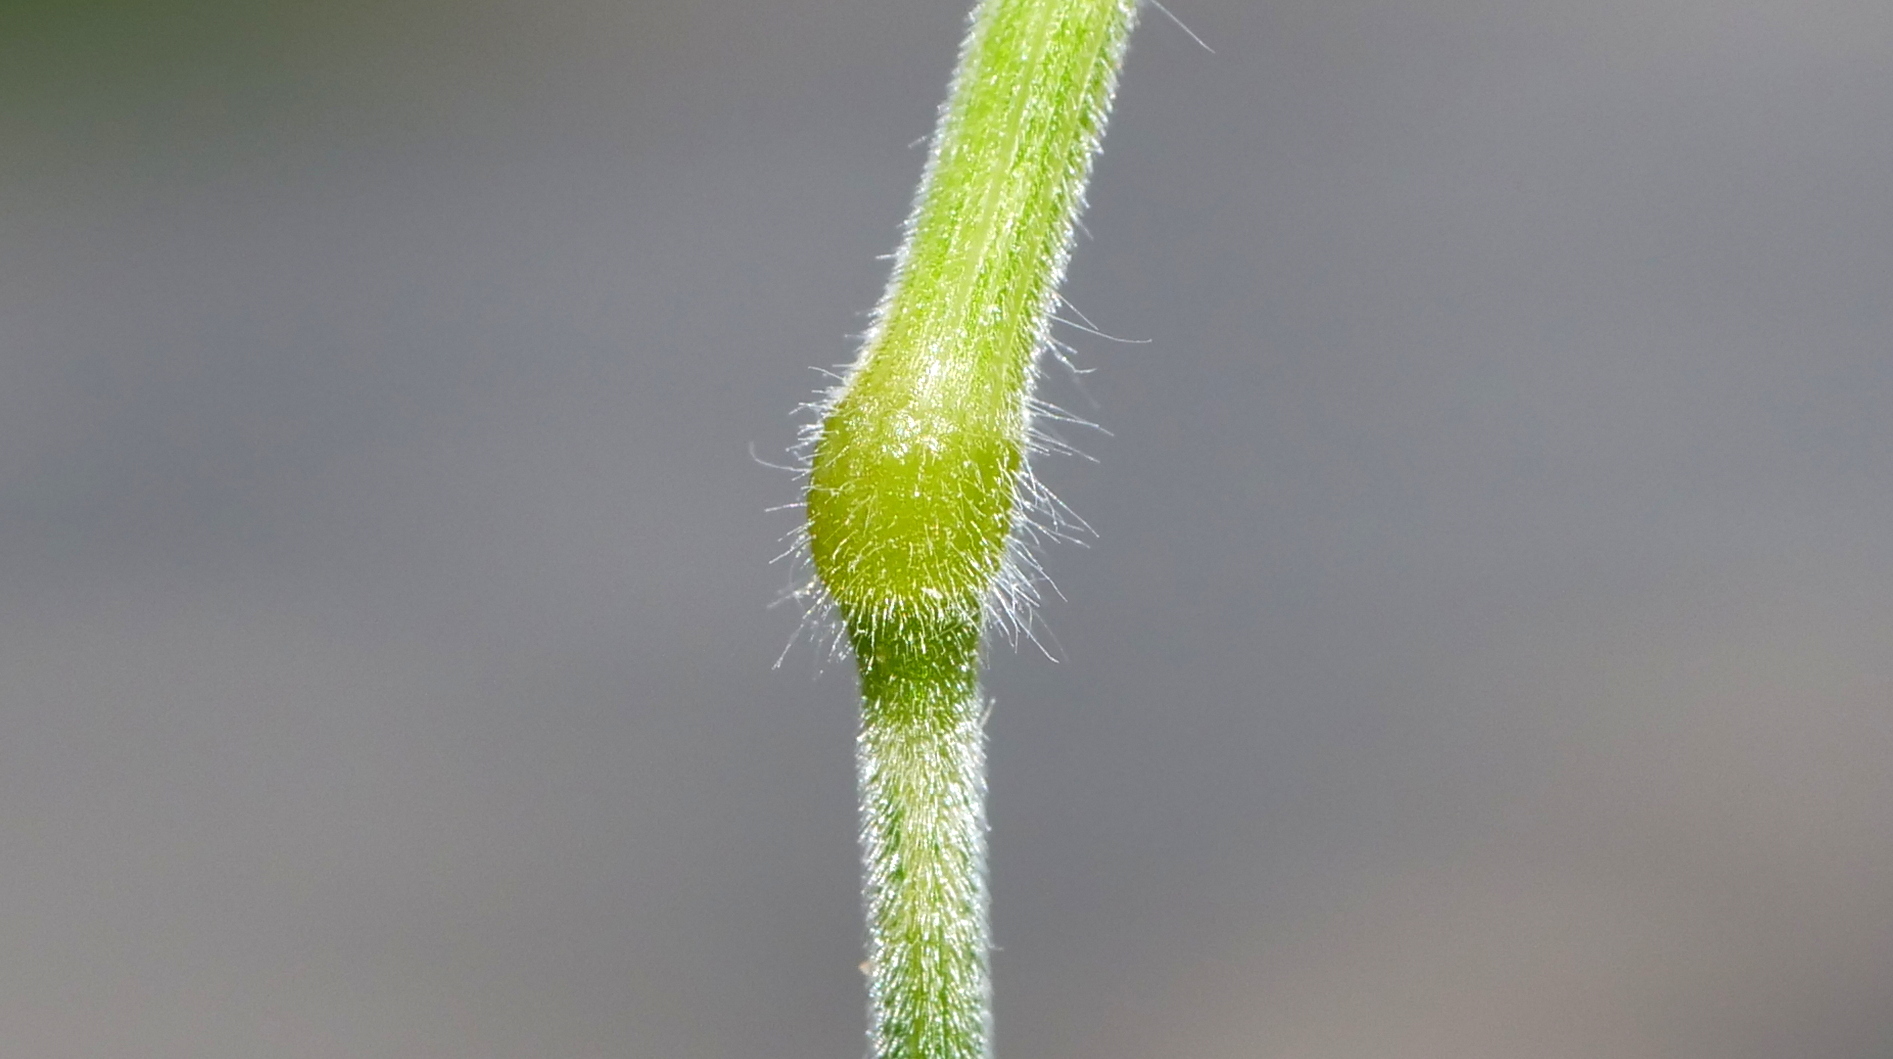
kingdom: Plantae
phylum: Tracheophyta
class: Liliopsida
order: Poales
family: Poaceae
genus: Bromus
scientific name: Bromus hordeaceus
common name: Soft brome
